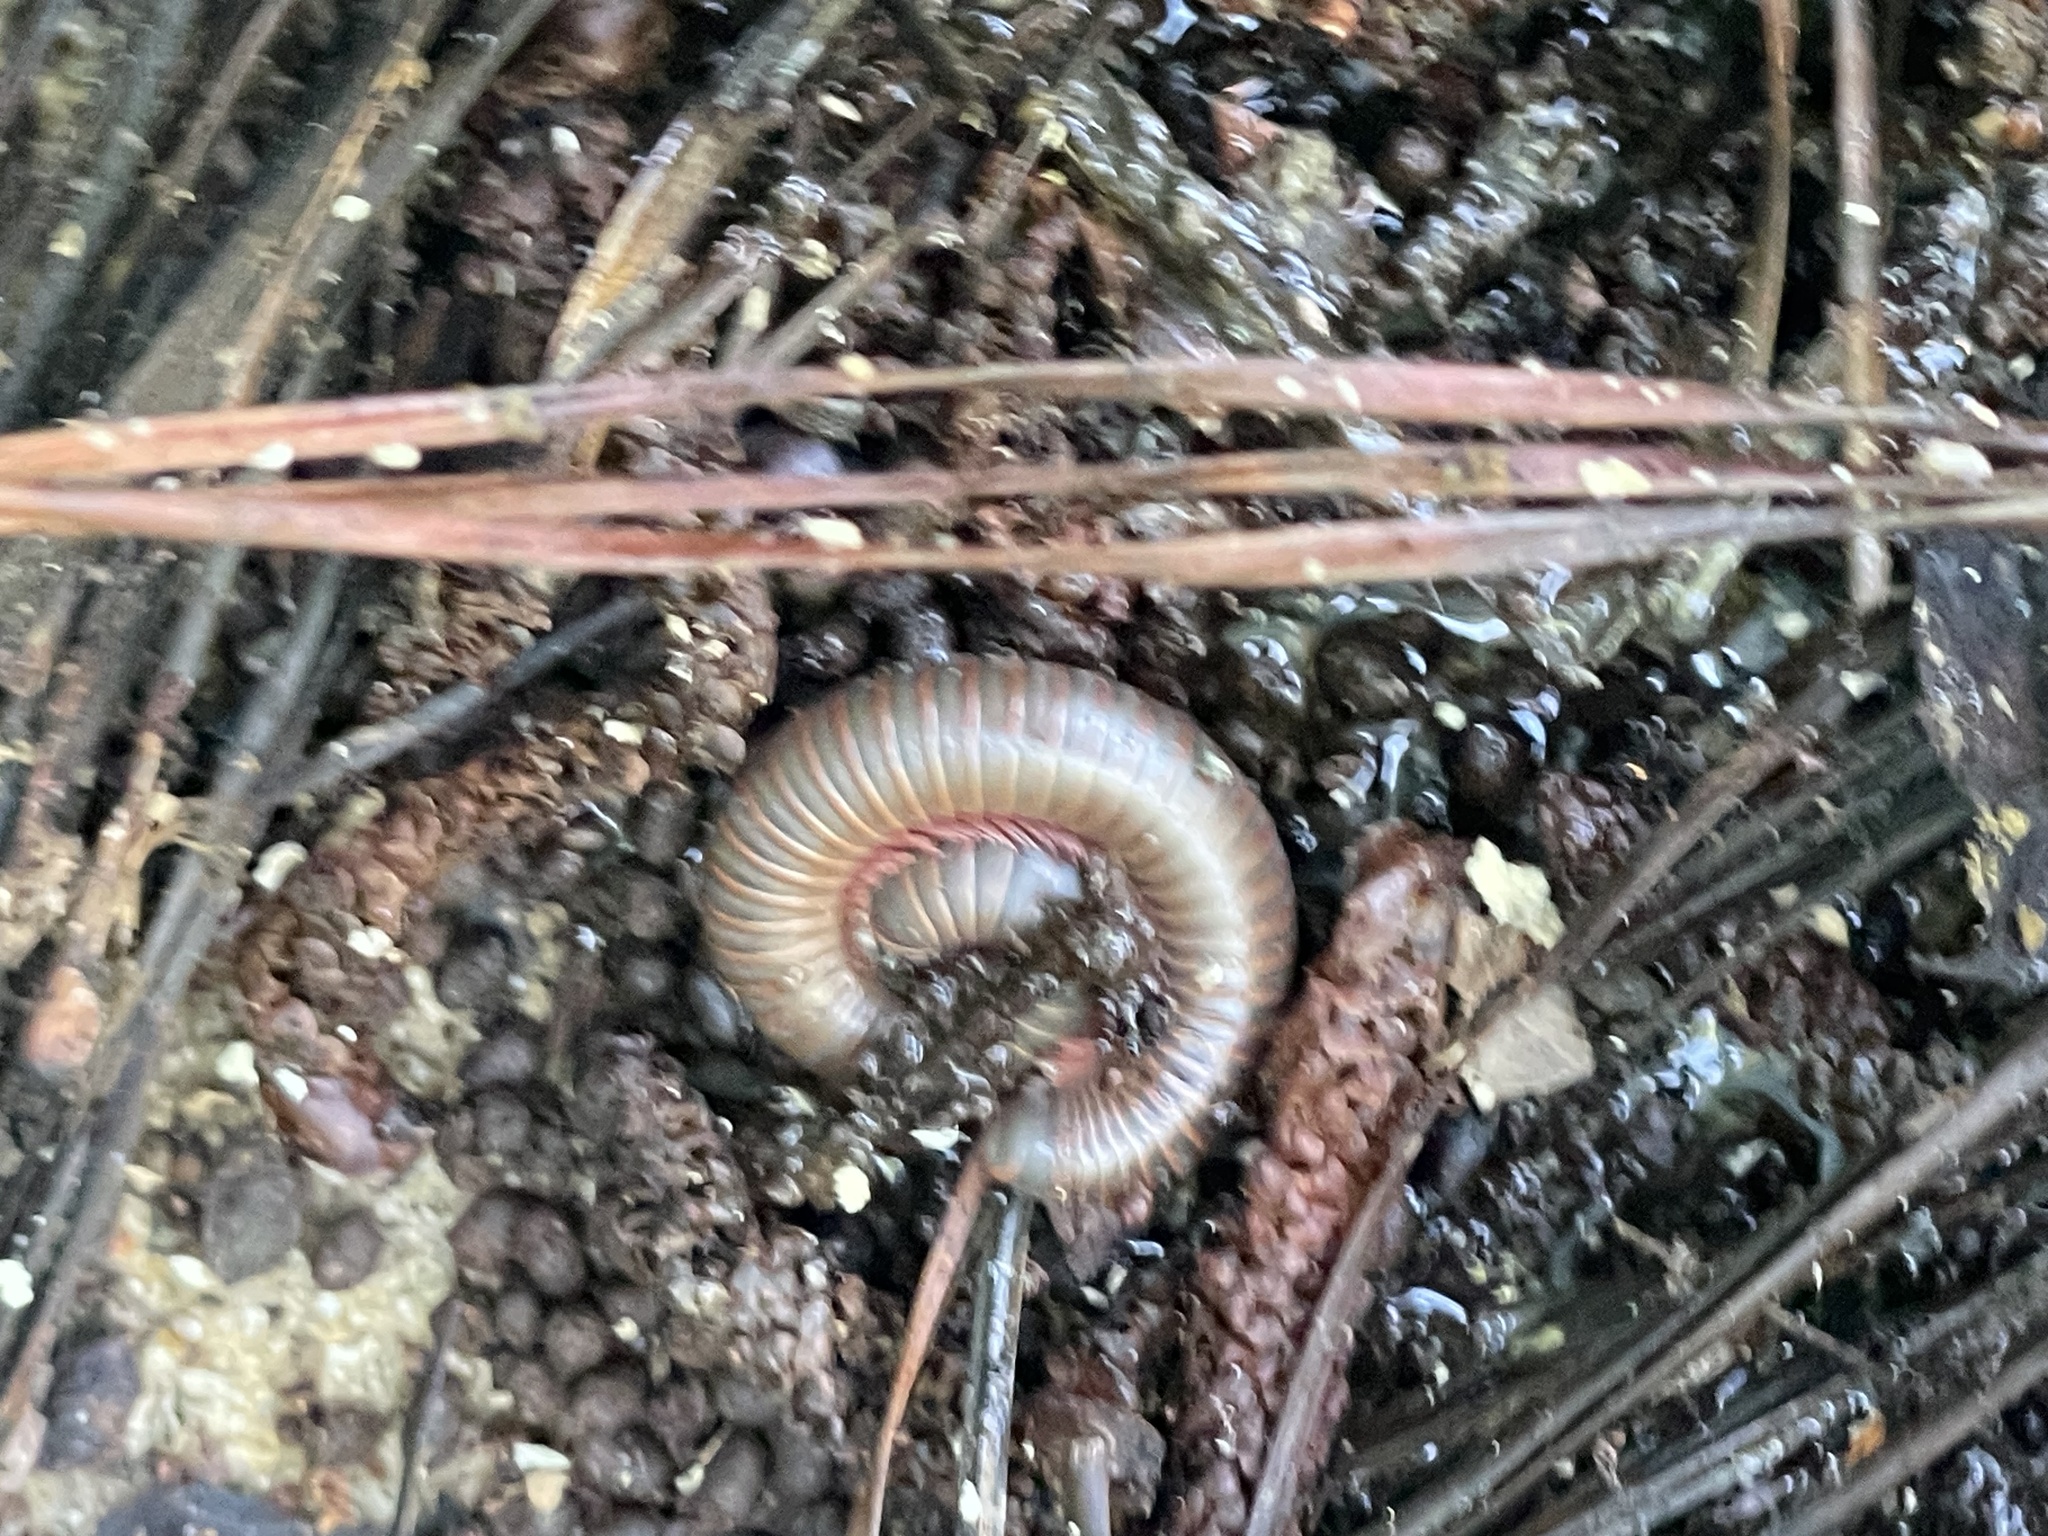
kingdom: Animalia
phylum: Arthropoda
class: Diplopoda
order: Spirobolida
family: Spirobolidae
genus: Narceus
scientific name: Narceus americanus
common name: American giant millipede
